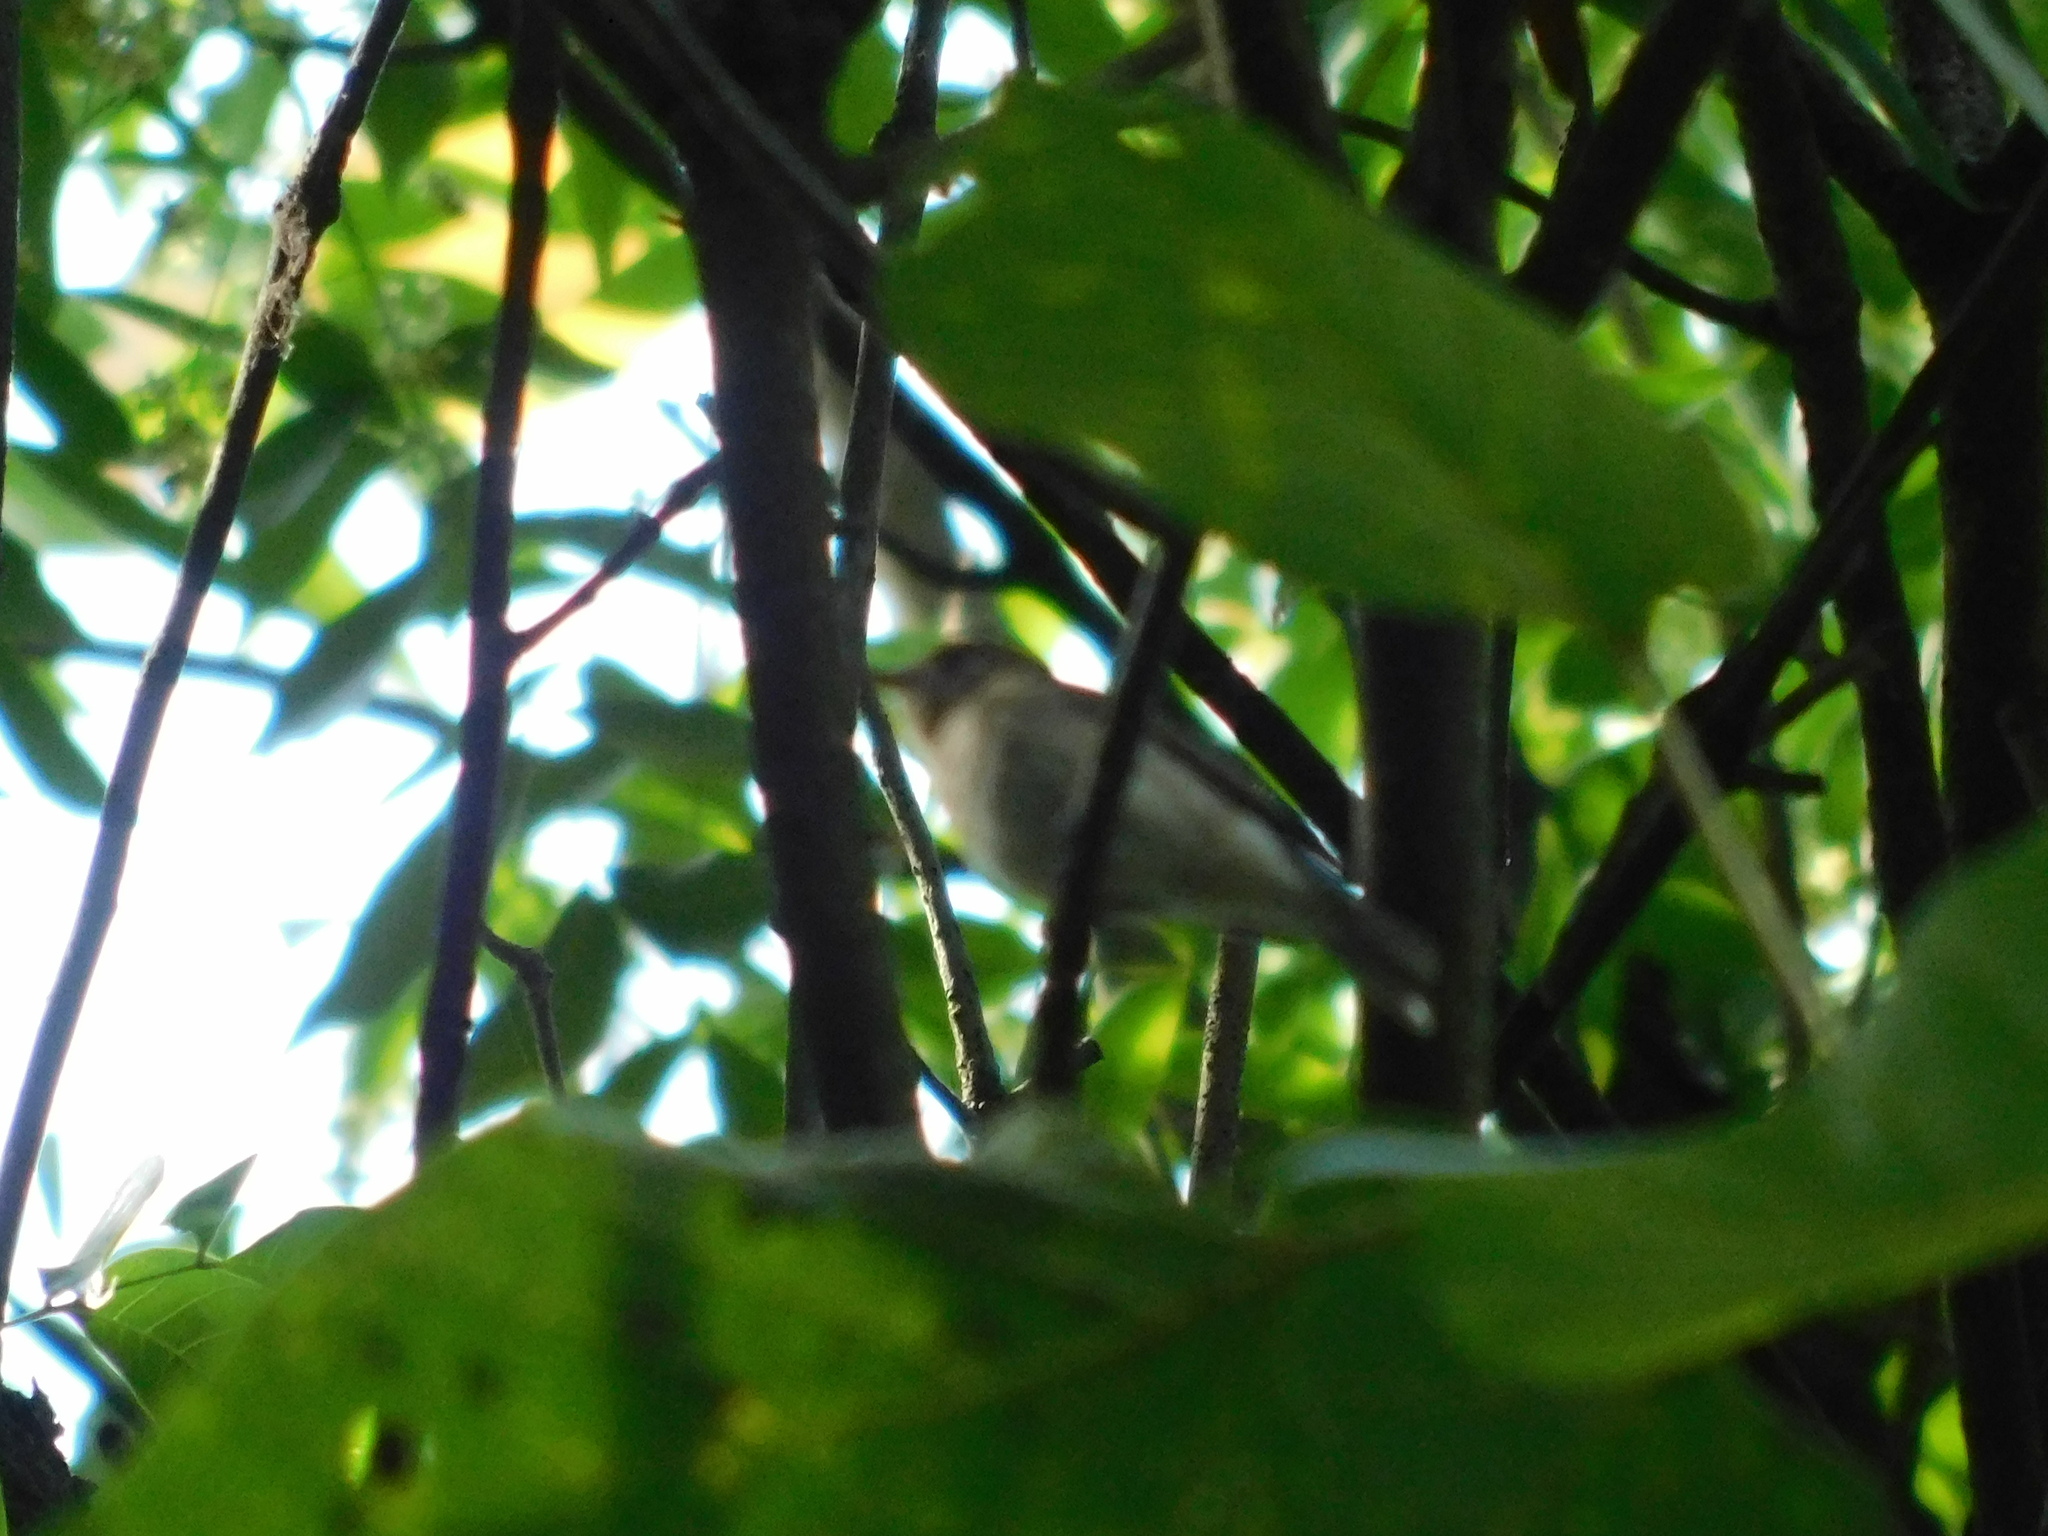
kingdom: Animalia
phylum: Chordata
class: Aves
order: Passeriformes
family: Muscicapidae
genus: Muscicapa
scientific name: Muscicapa latirostris
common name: Asian brown flycatcher
